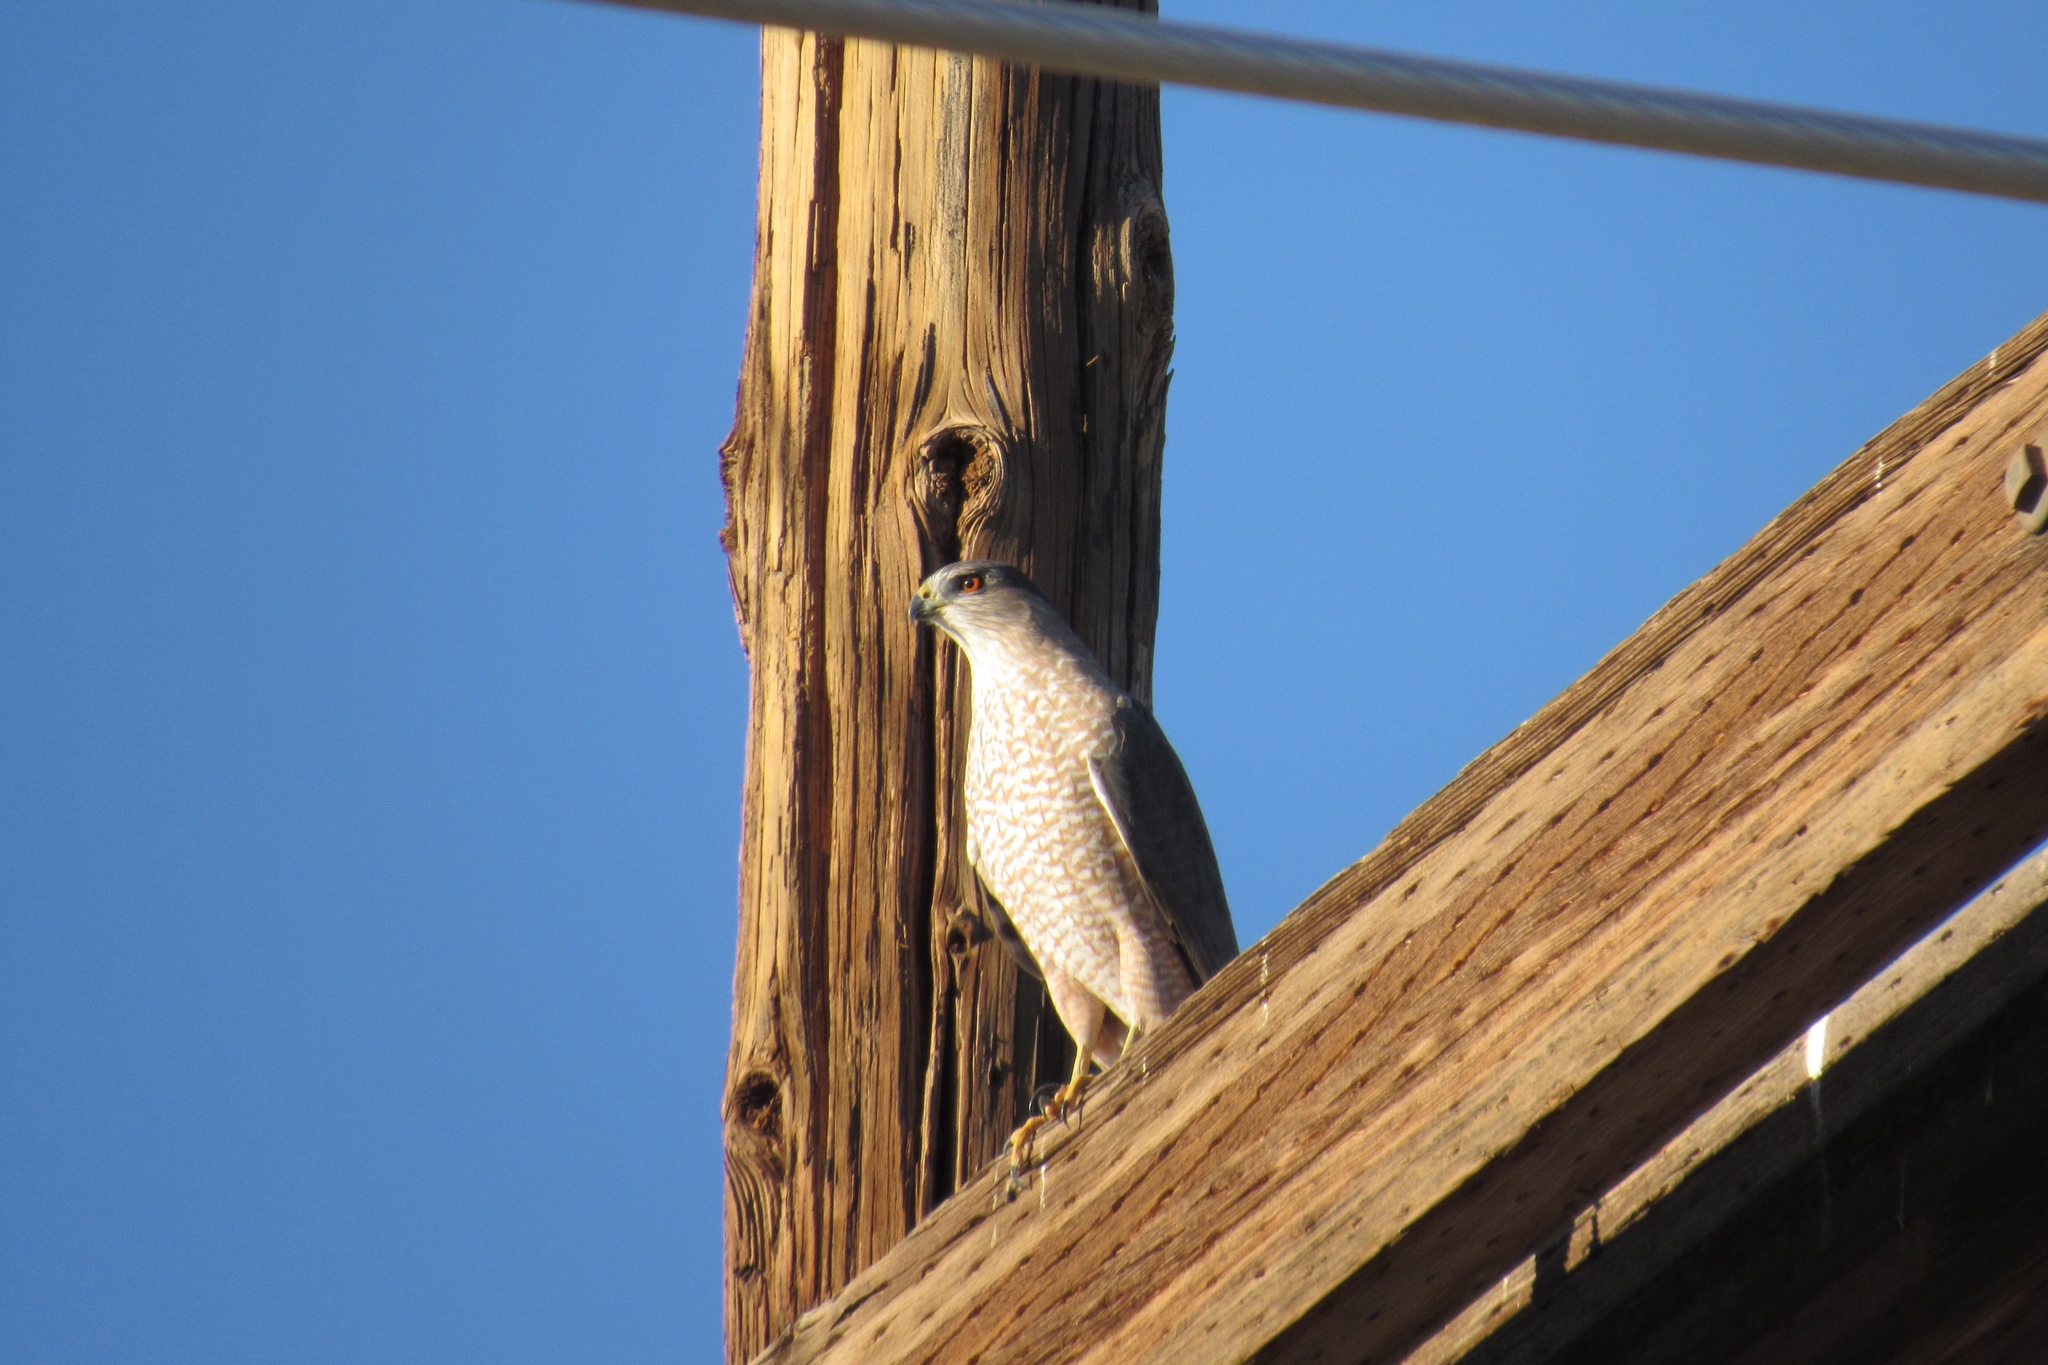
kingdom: Animalia
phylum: Chordata
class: Aves
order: Accipitriformes
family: Accipitridae
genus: Accipiter
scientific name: Accipiter cooperii
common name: Cooper's hawk
